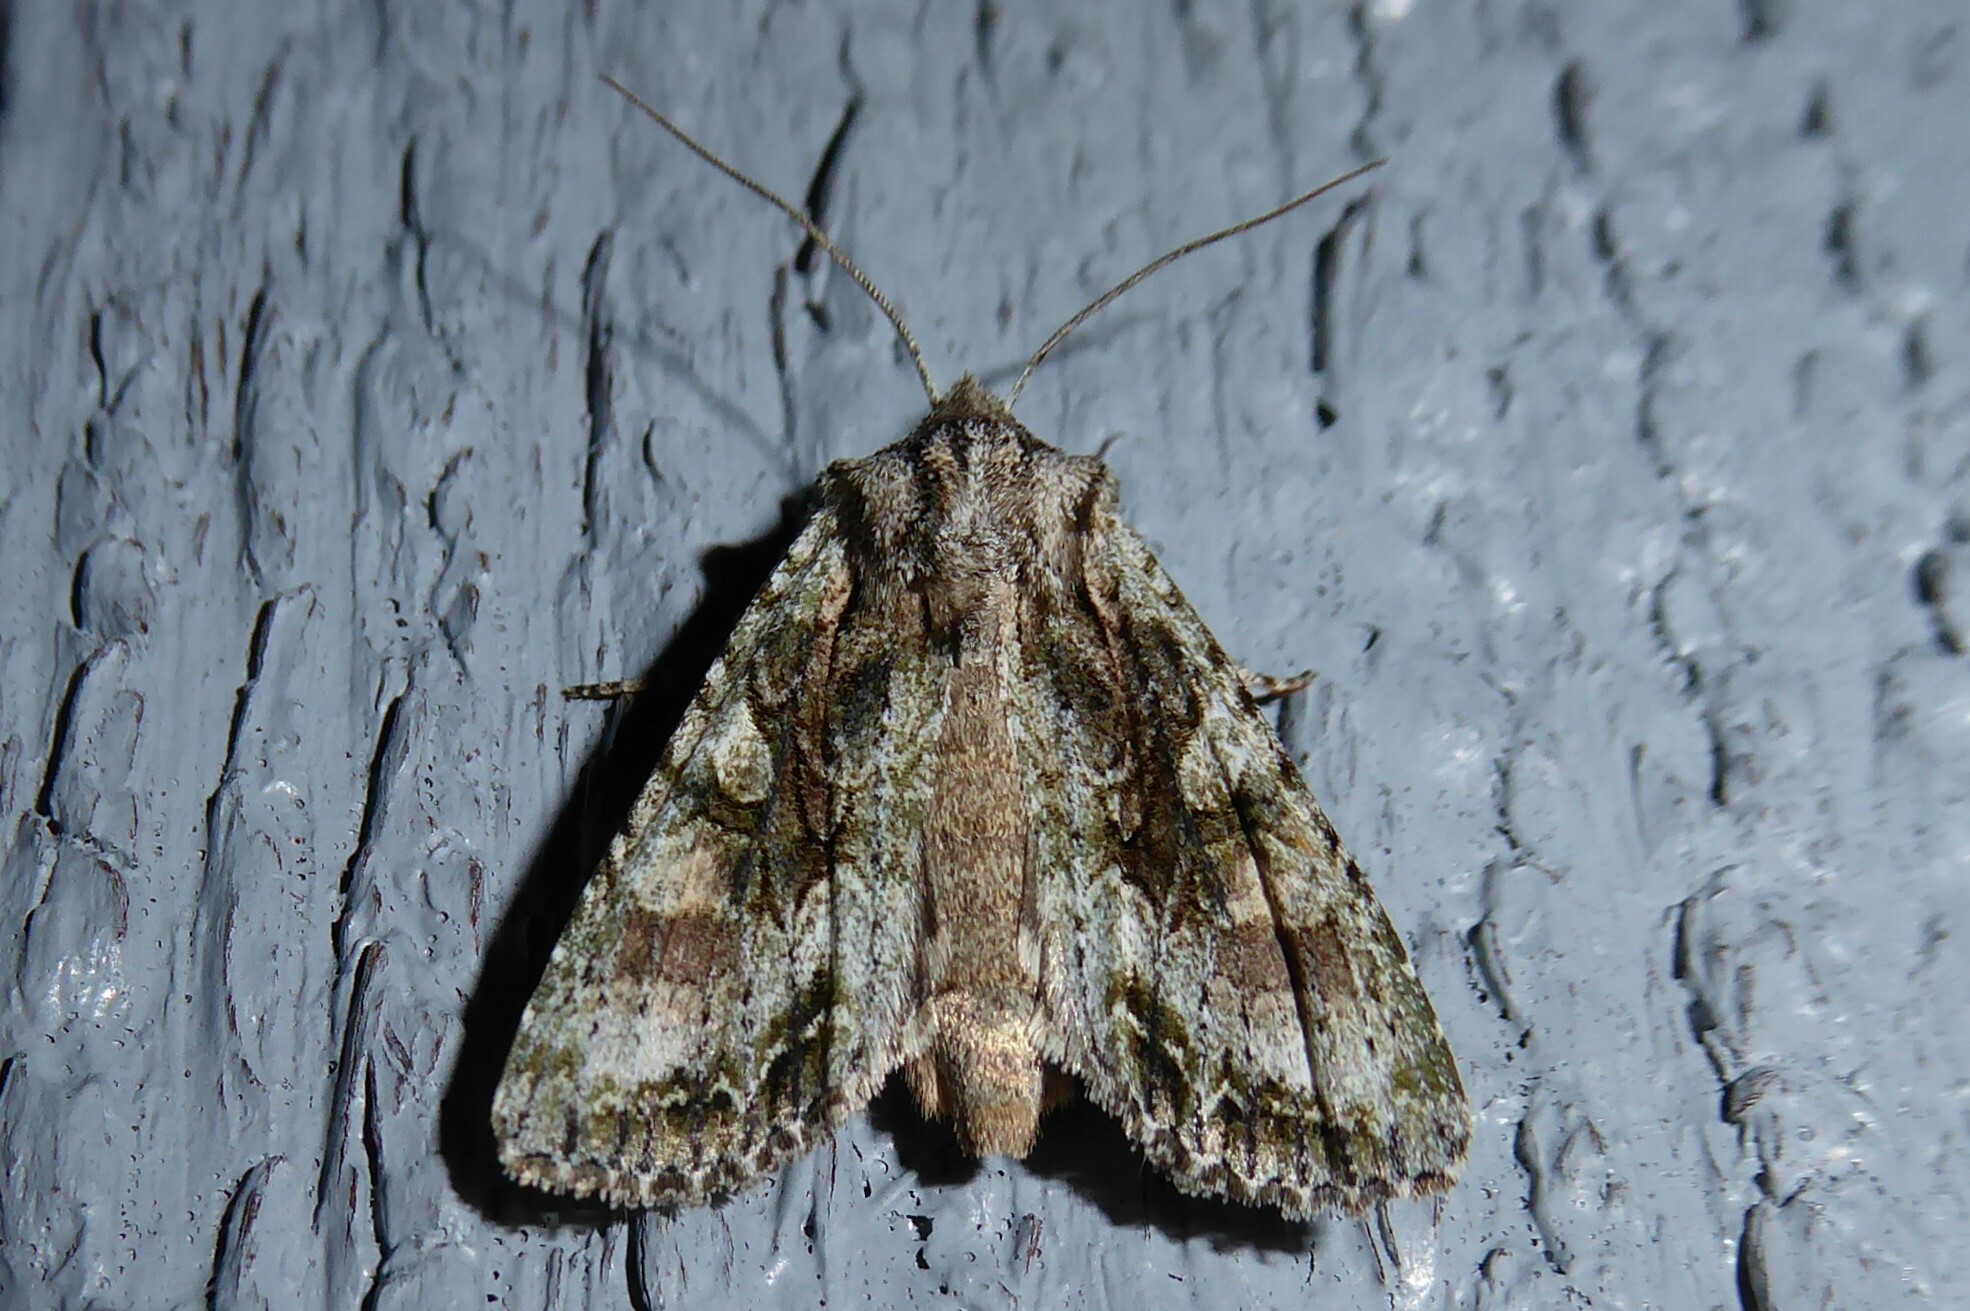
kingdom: Animalia
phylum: Arthropoda
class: Insecta
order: Lepidoptera
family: Noctuidae
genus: Ichneutica
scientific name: Ichneutica mutans
